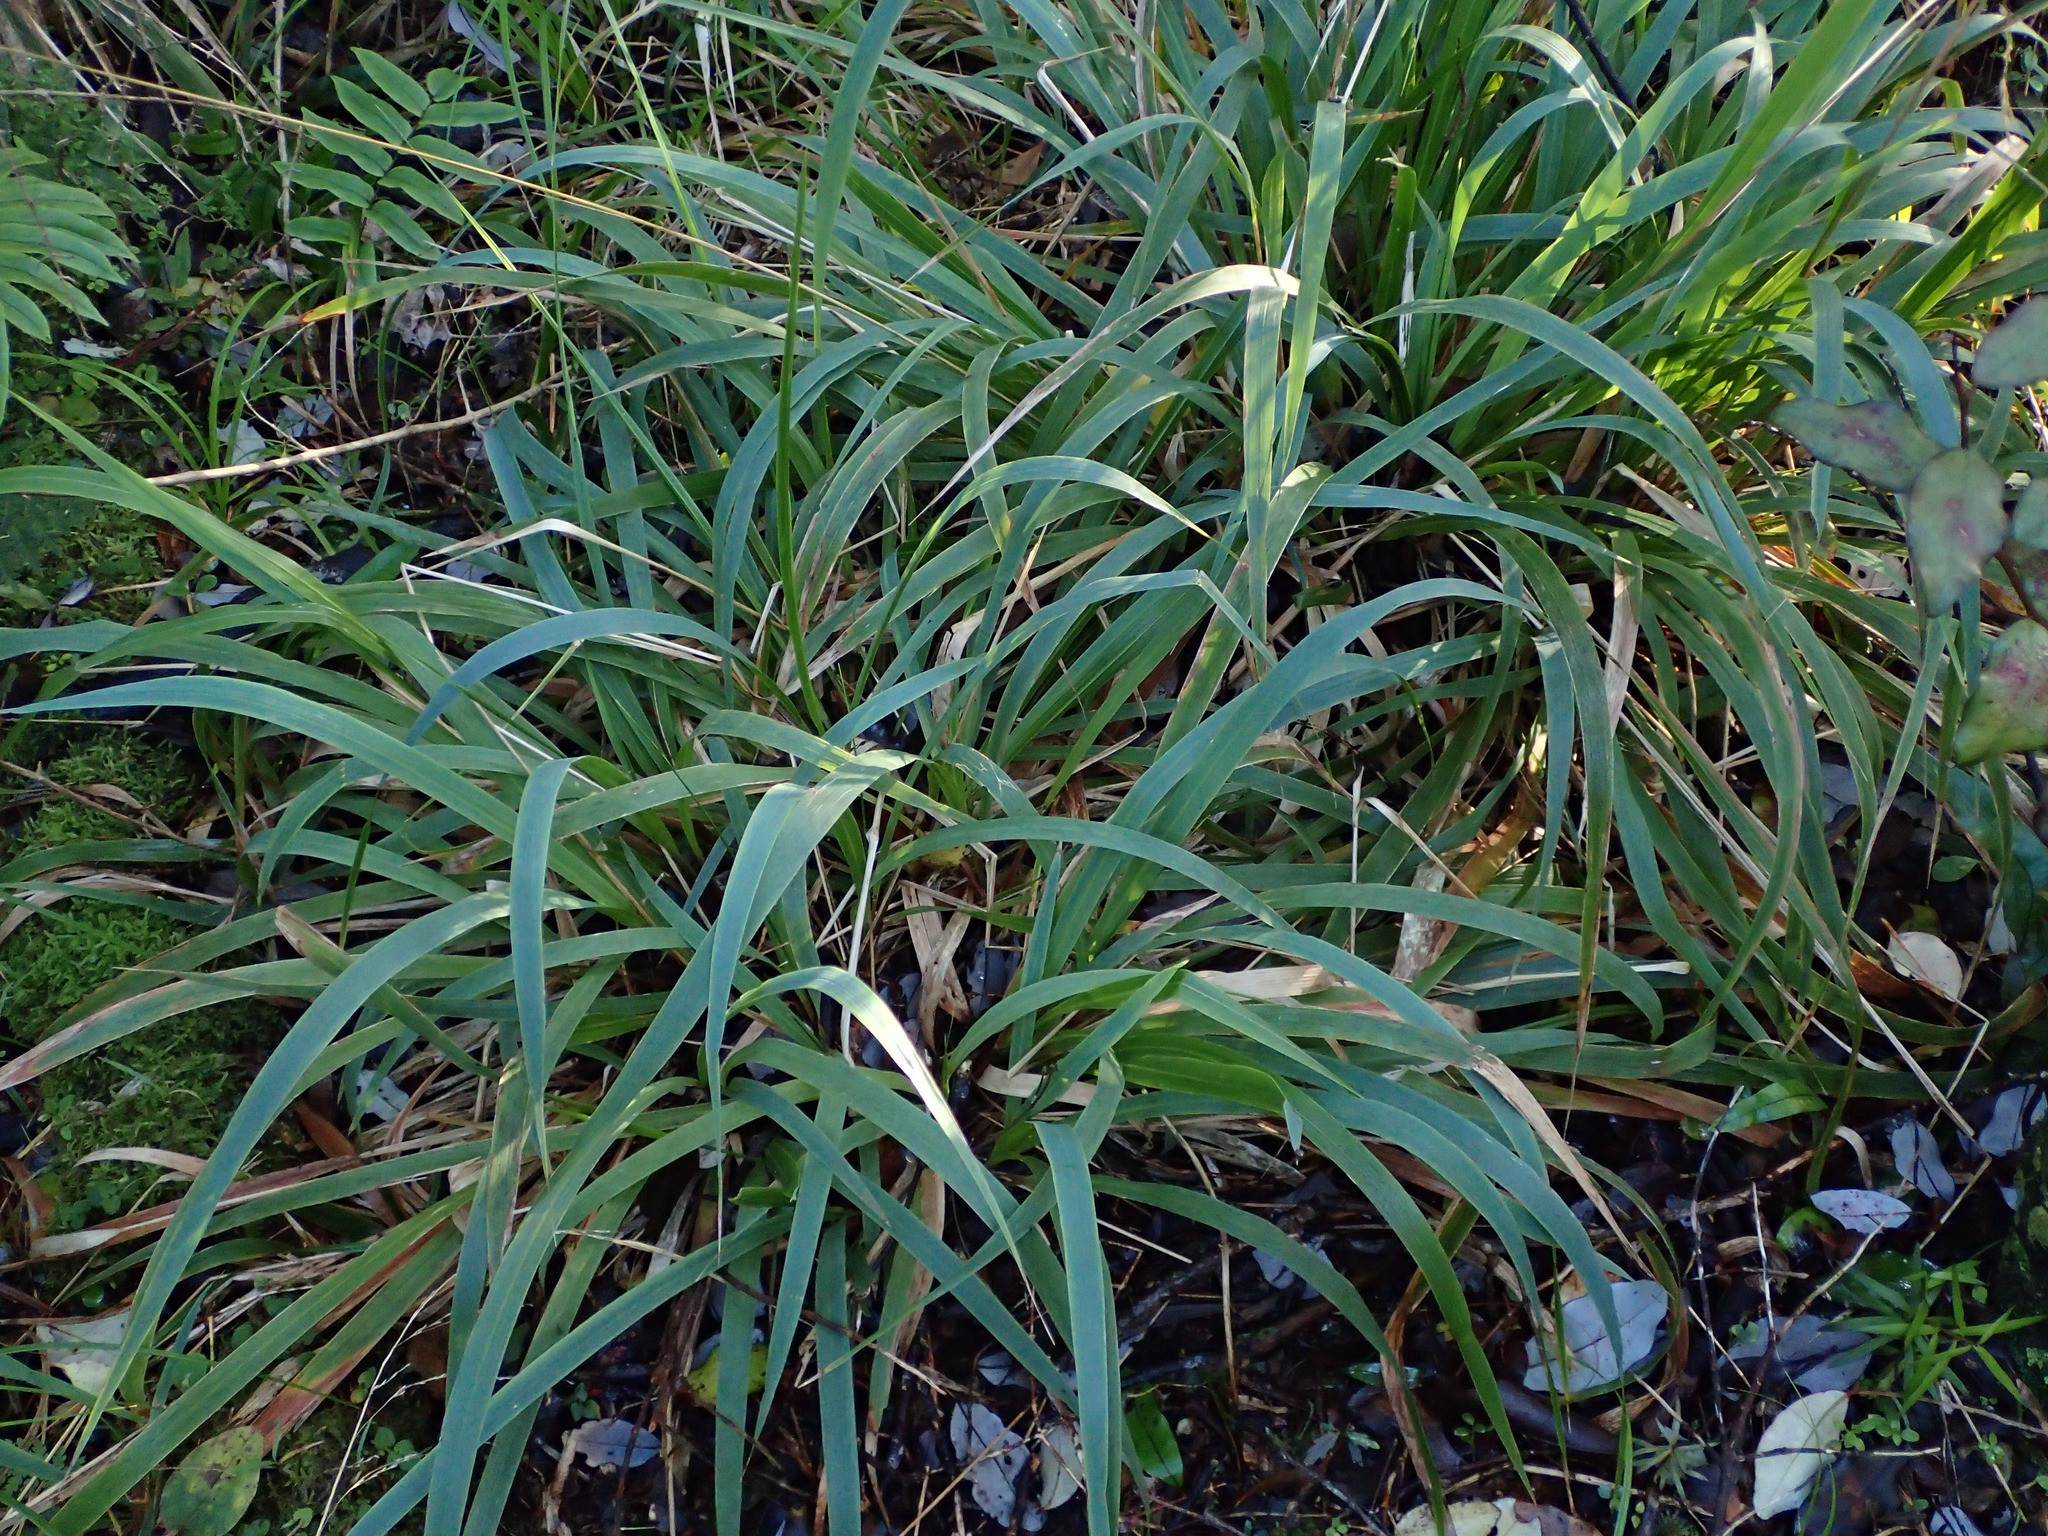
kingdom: Plantae
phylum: Tracheophyta
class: Liliopsida
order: Poales
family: Poaceae
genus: Ehrharta
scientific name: Ehrharta diplax
